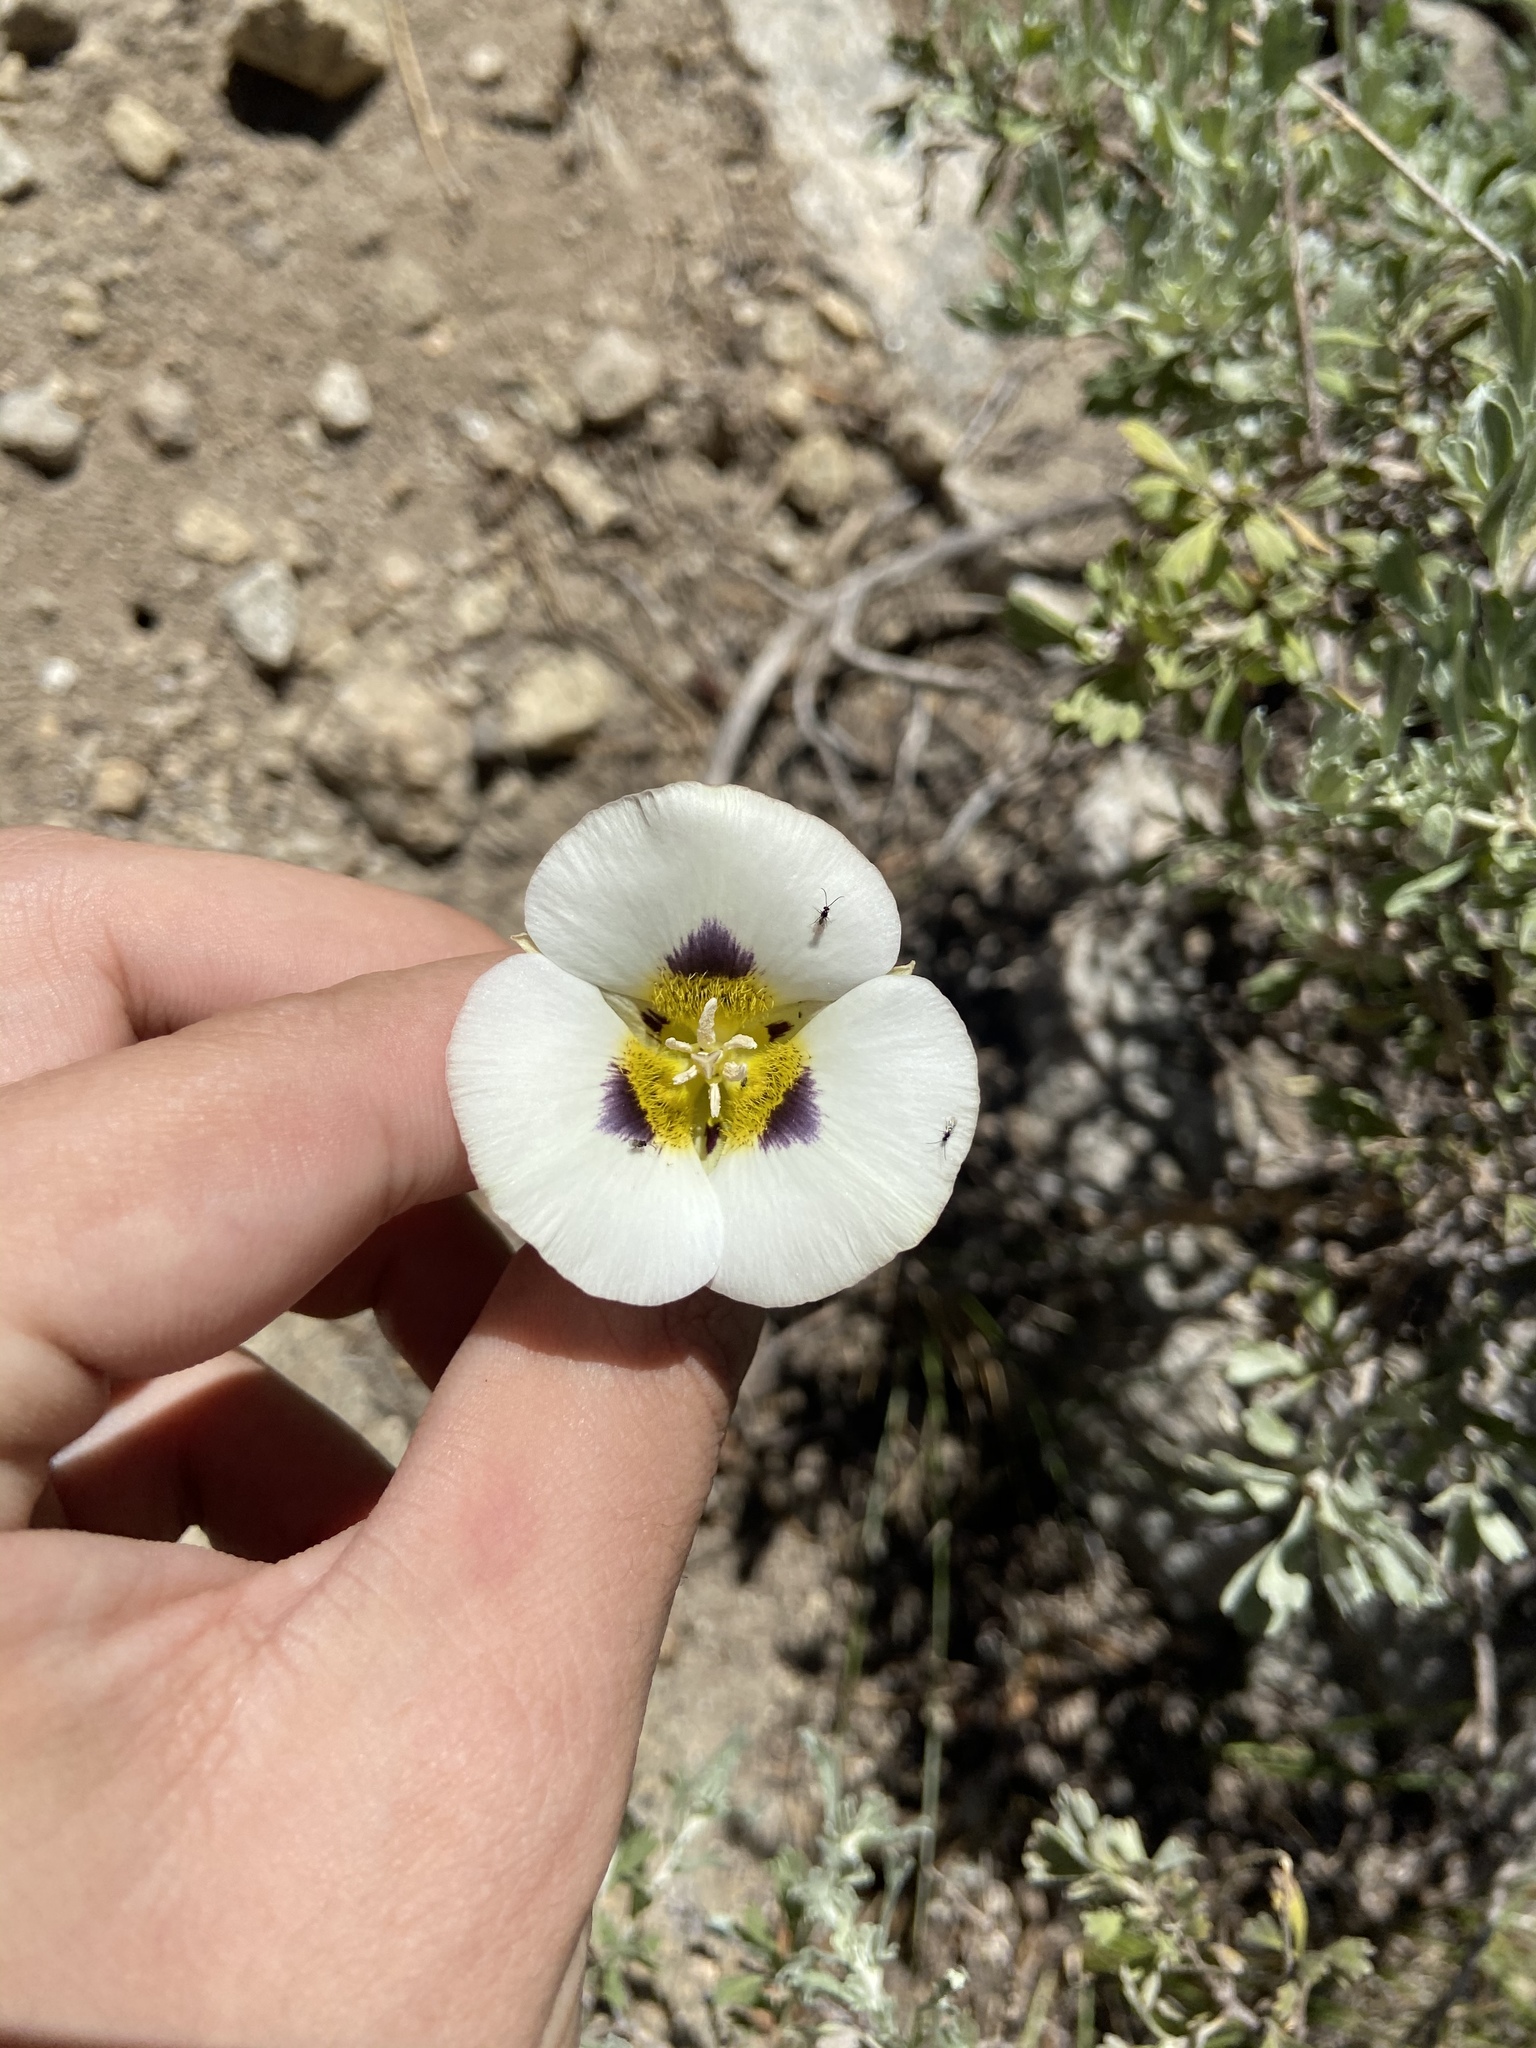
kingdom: Plantae
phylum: Tracheophyta
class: Liliopsida
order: Liliales
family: Liliaceae
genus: Calochortus
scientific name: Calochortus leichtlinii
